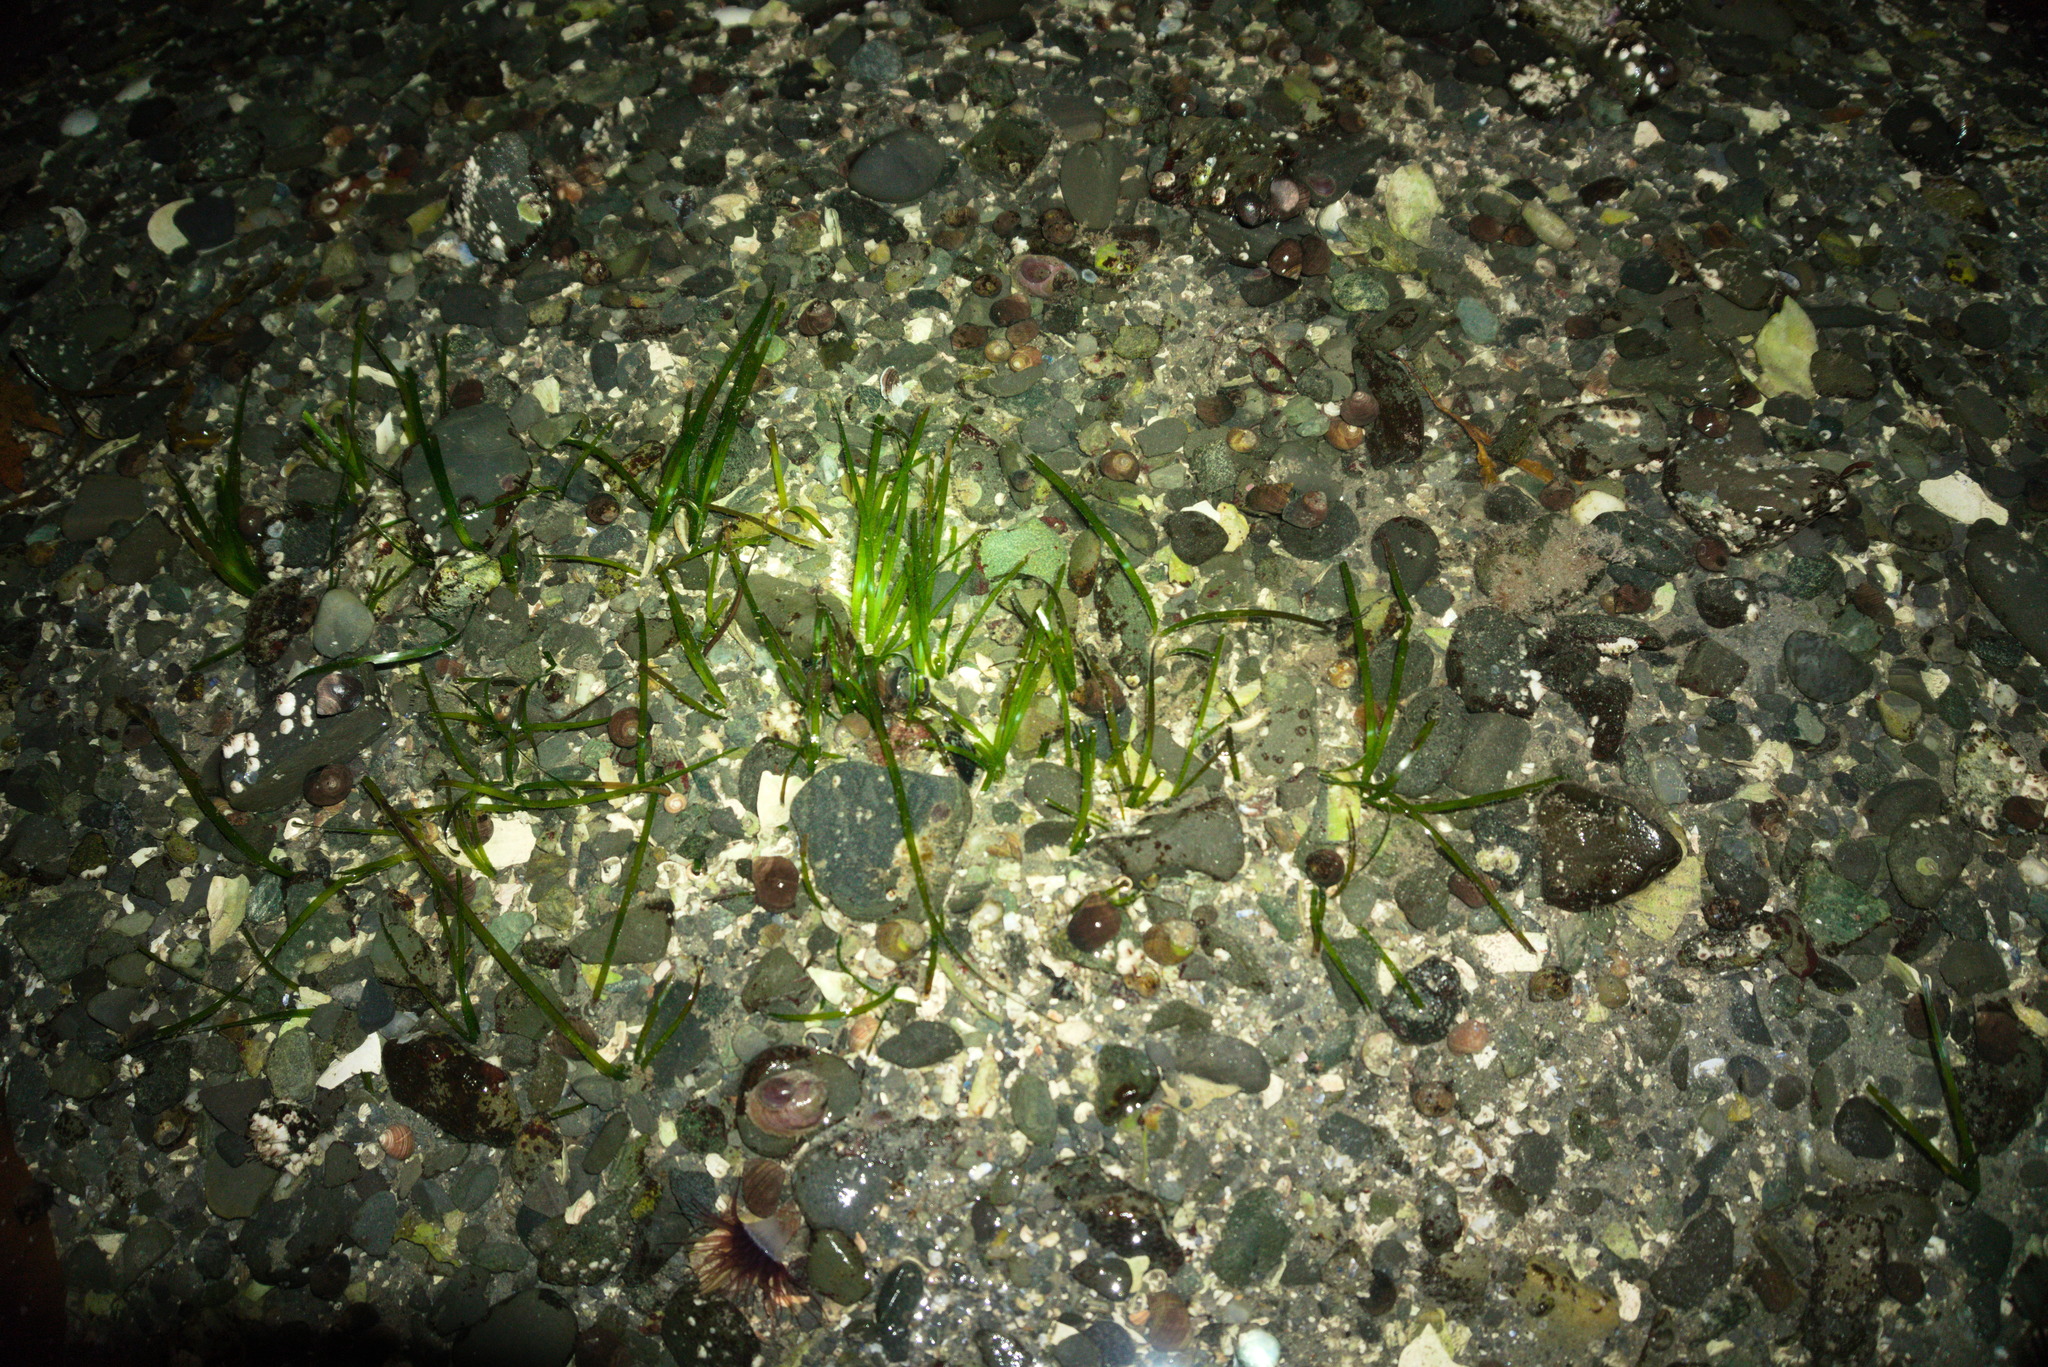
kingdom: Plantae
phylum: Tracheophyta
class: Liliopsida
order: Alismatales
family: Zosteraceae
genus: Zostera
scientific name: Zostera marina
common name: Eelgrass
